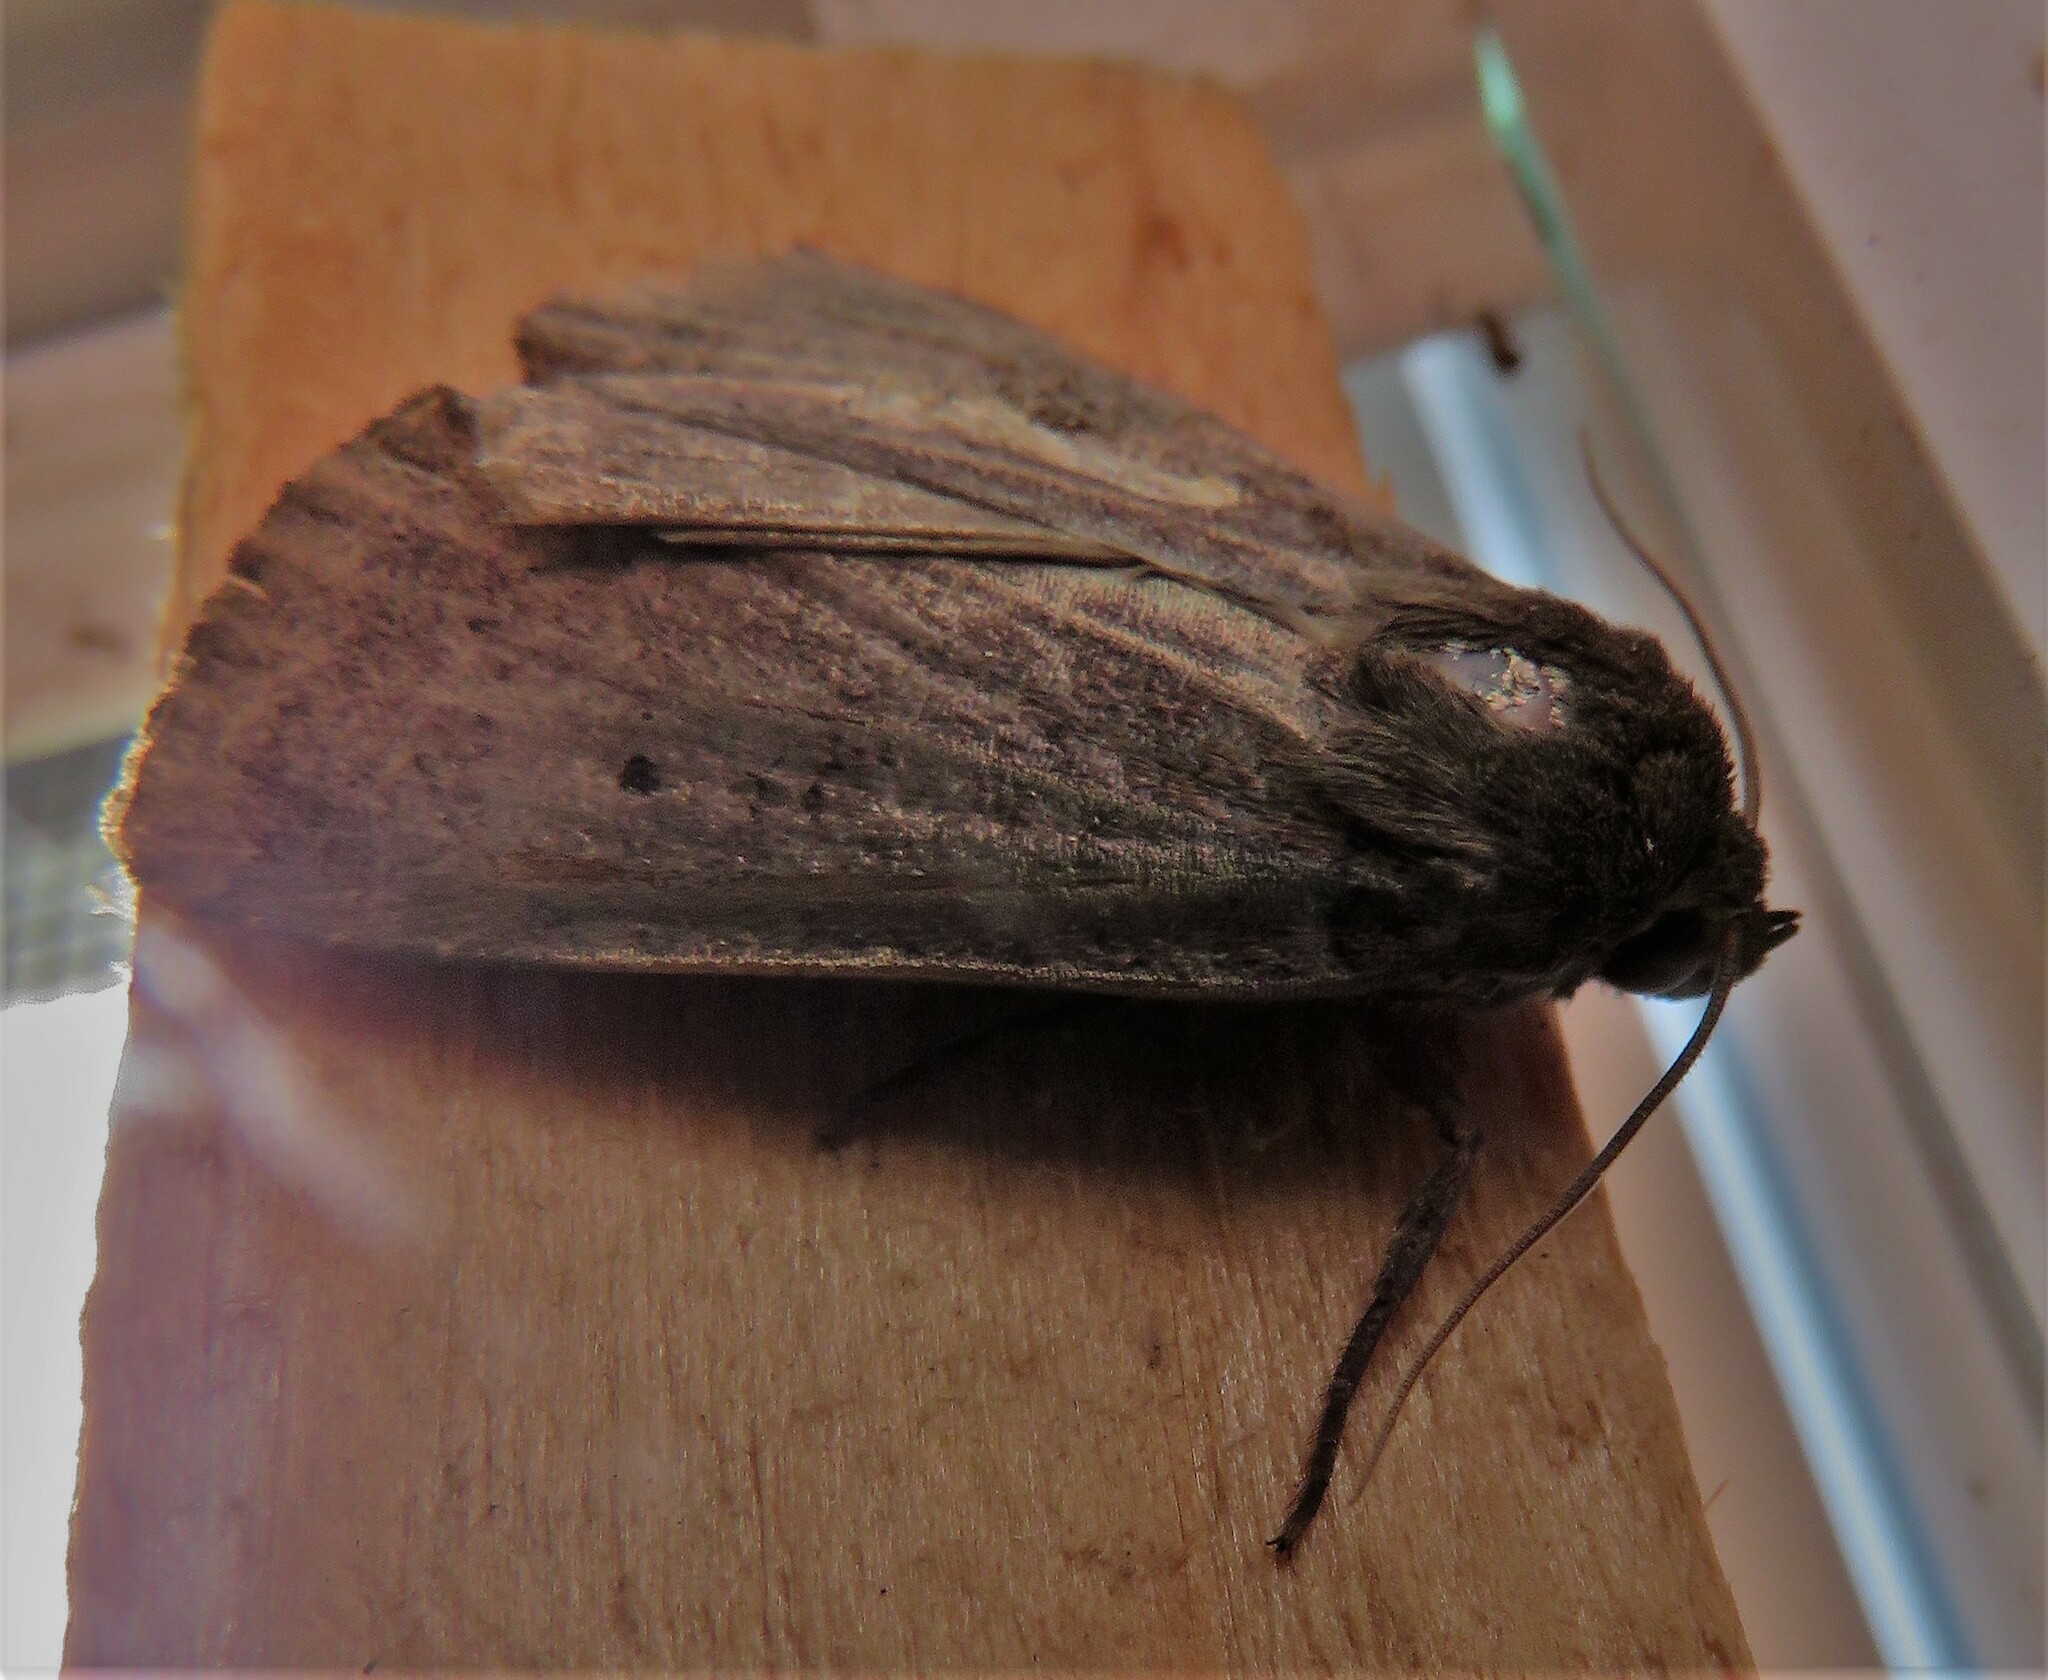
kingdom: Animalia
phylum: Arthropoda
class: Insecta
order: Lepidoptera
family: Noctuidae
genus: Graphiphora
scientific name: Graphiphora augur
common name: Double dart
